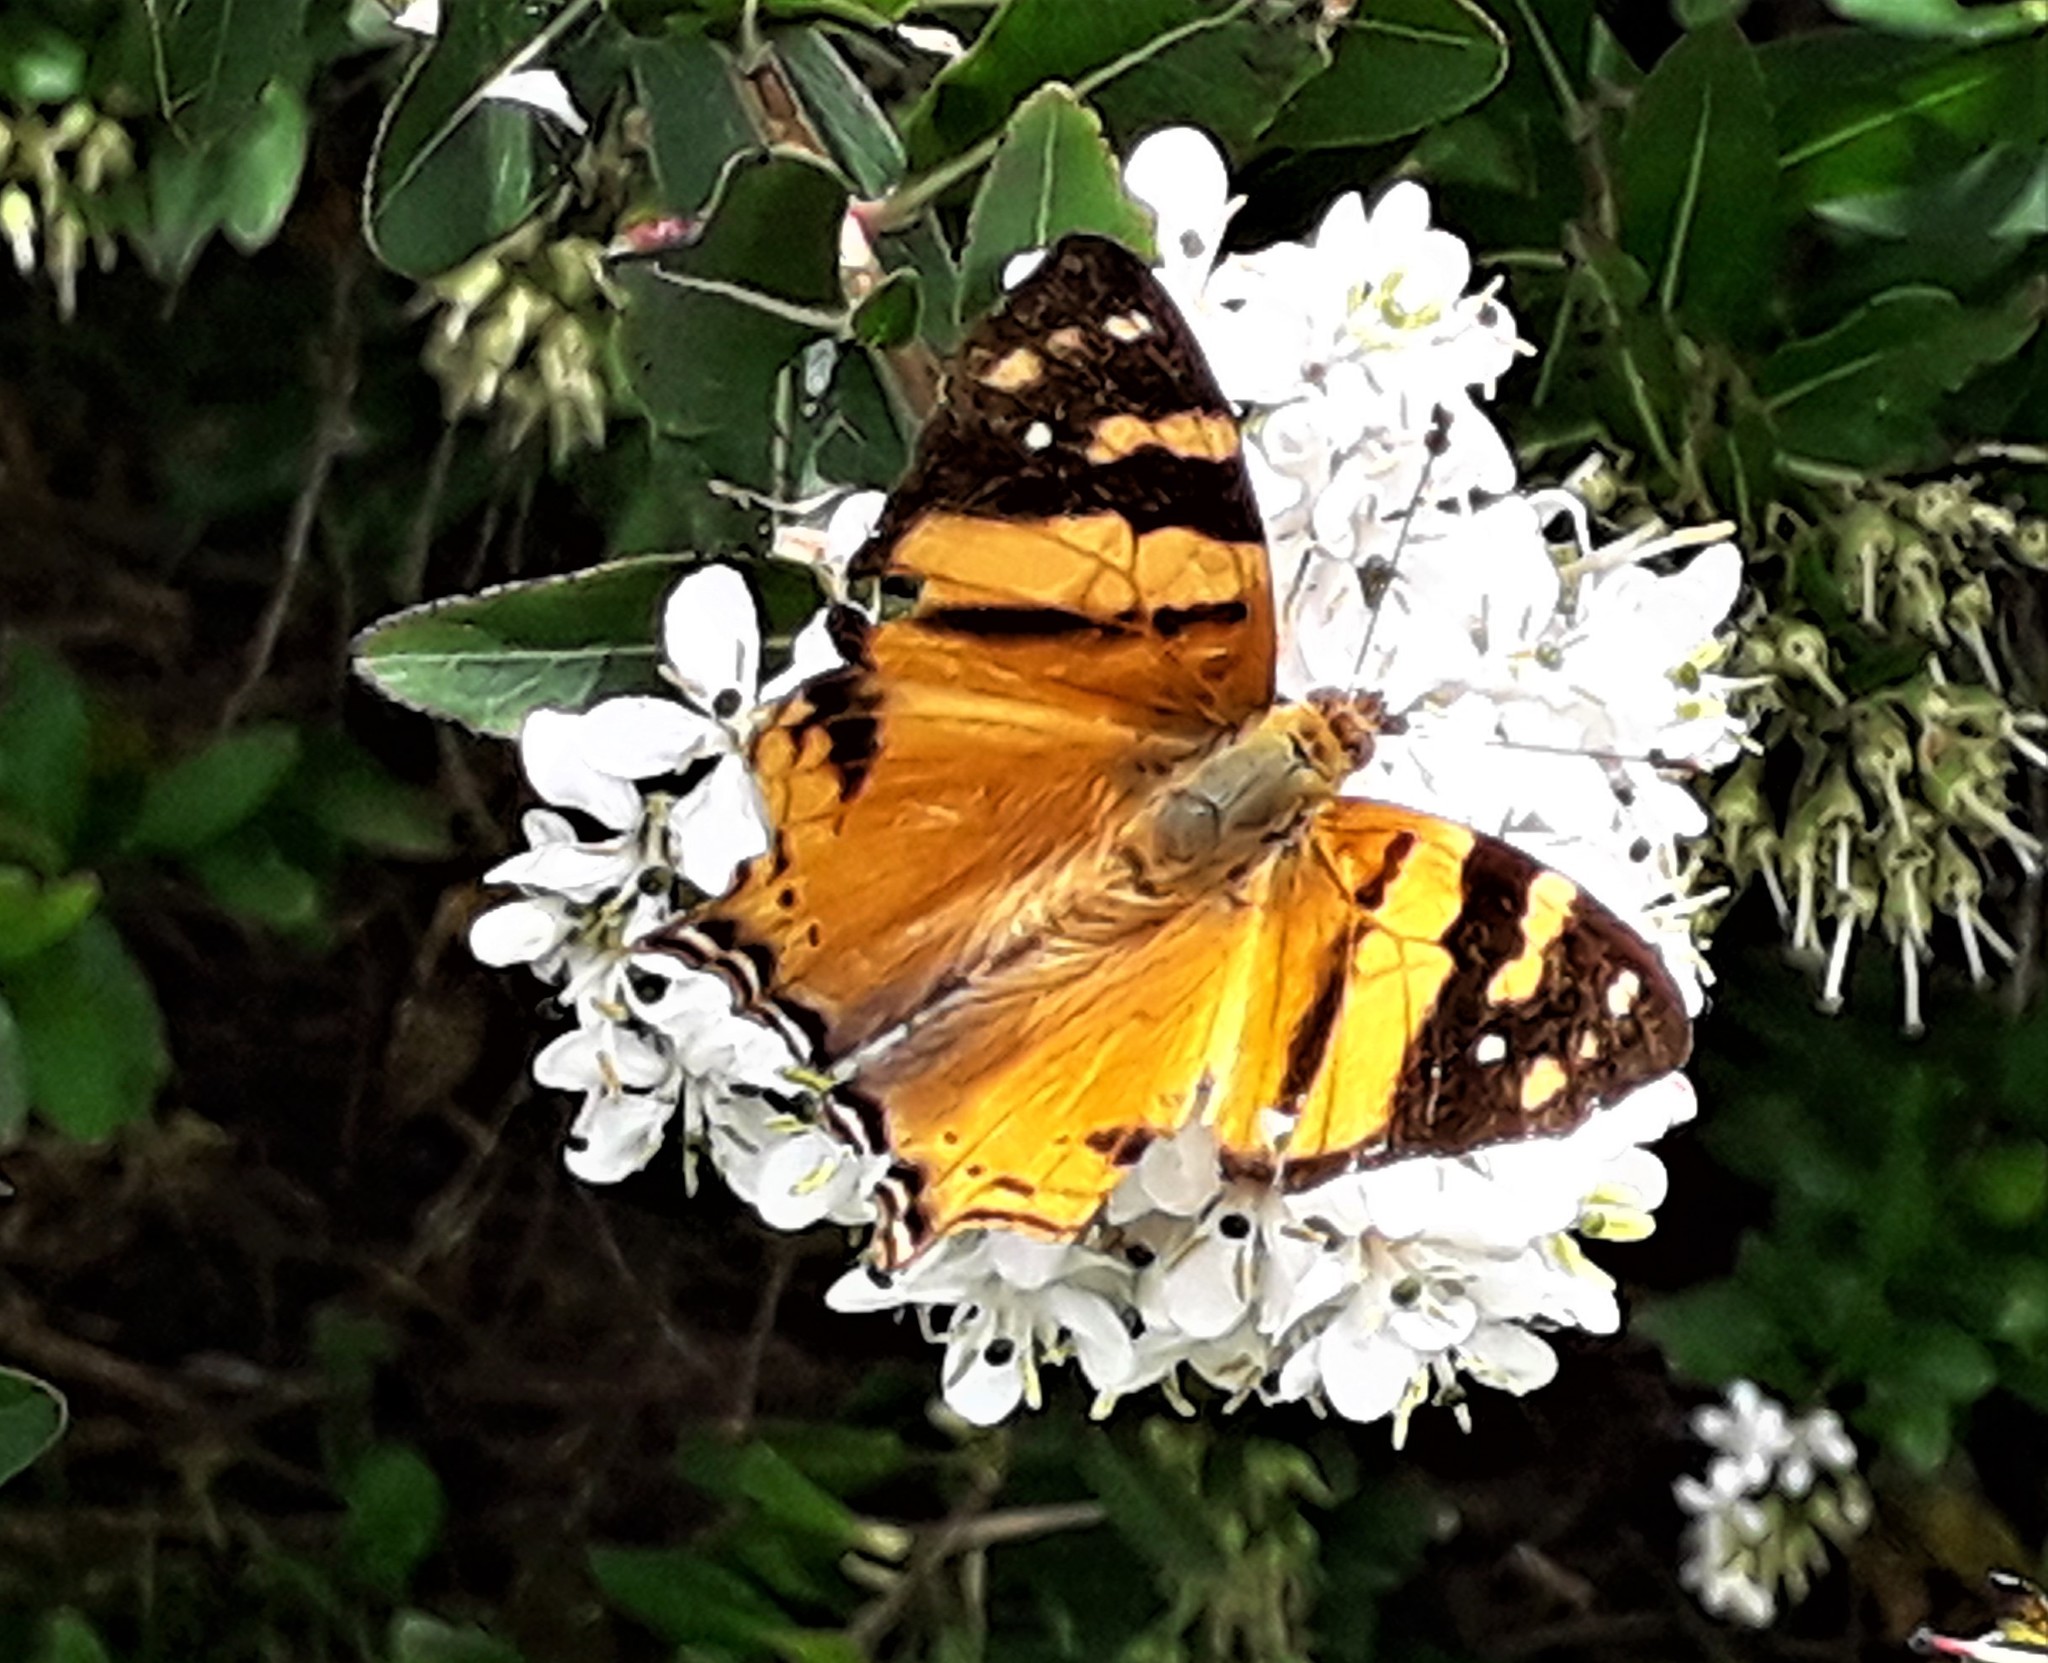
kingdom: Animalia
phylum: Arthropoda
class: Insecta
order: Lepidoptera
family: Nymphalidae
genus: Hypanartia
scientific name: Hypanartia lethe
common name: Orange mapwing
